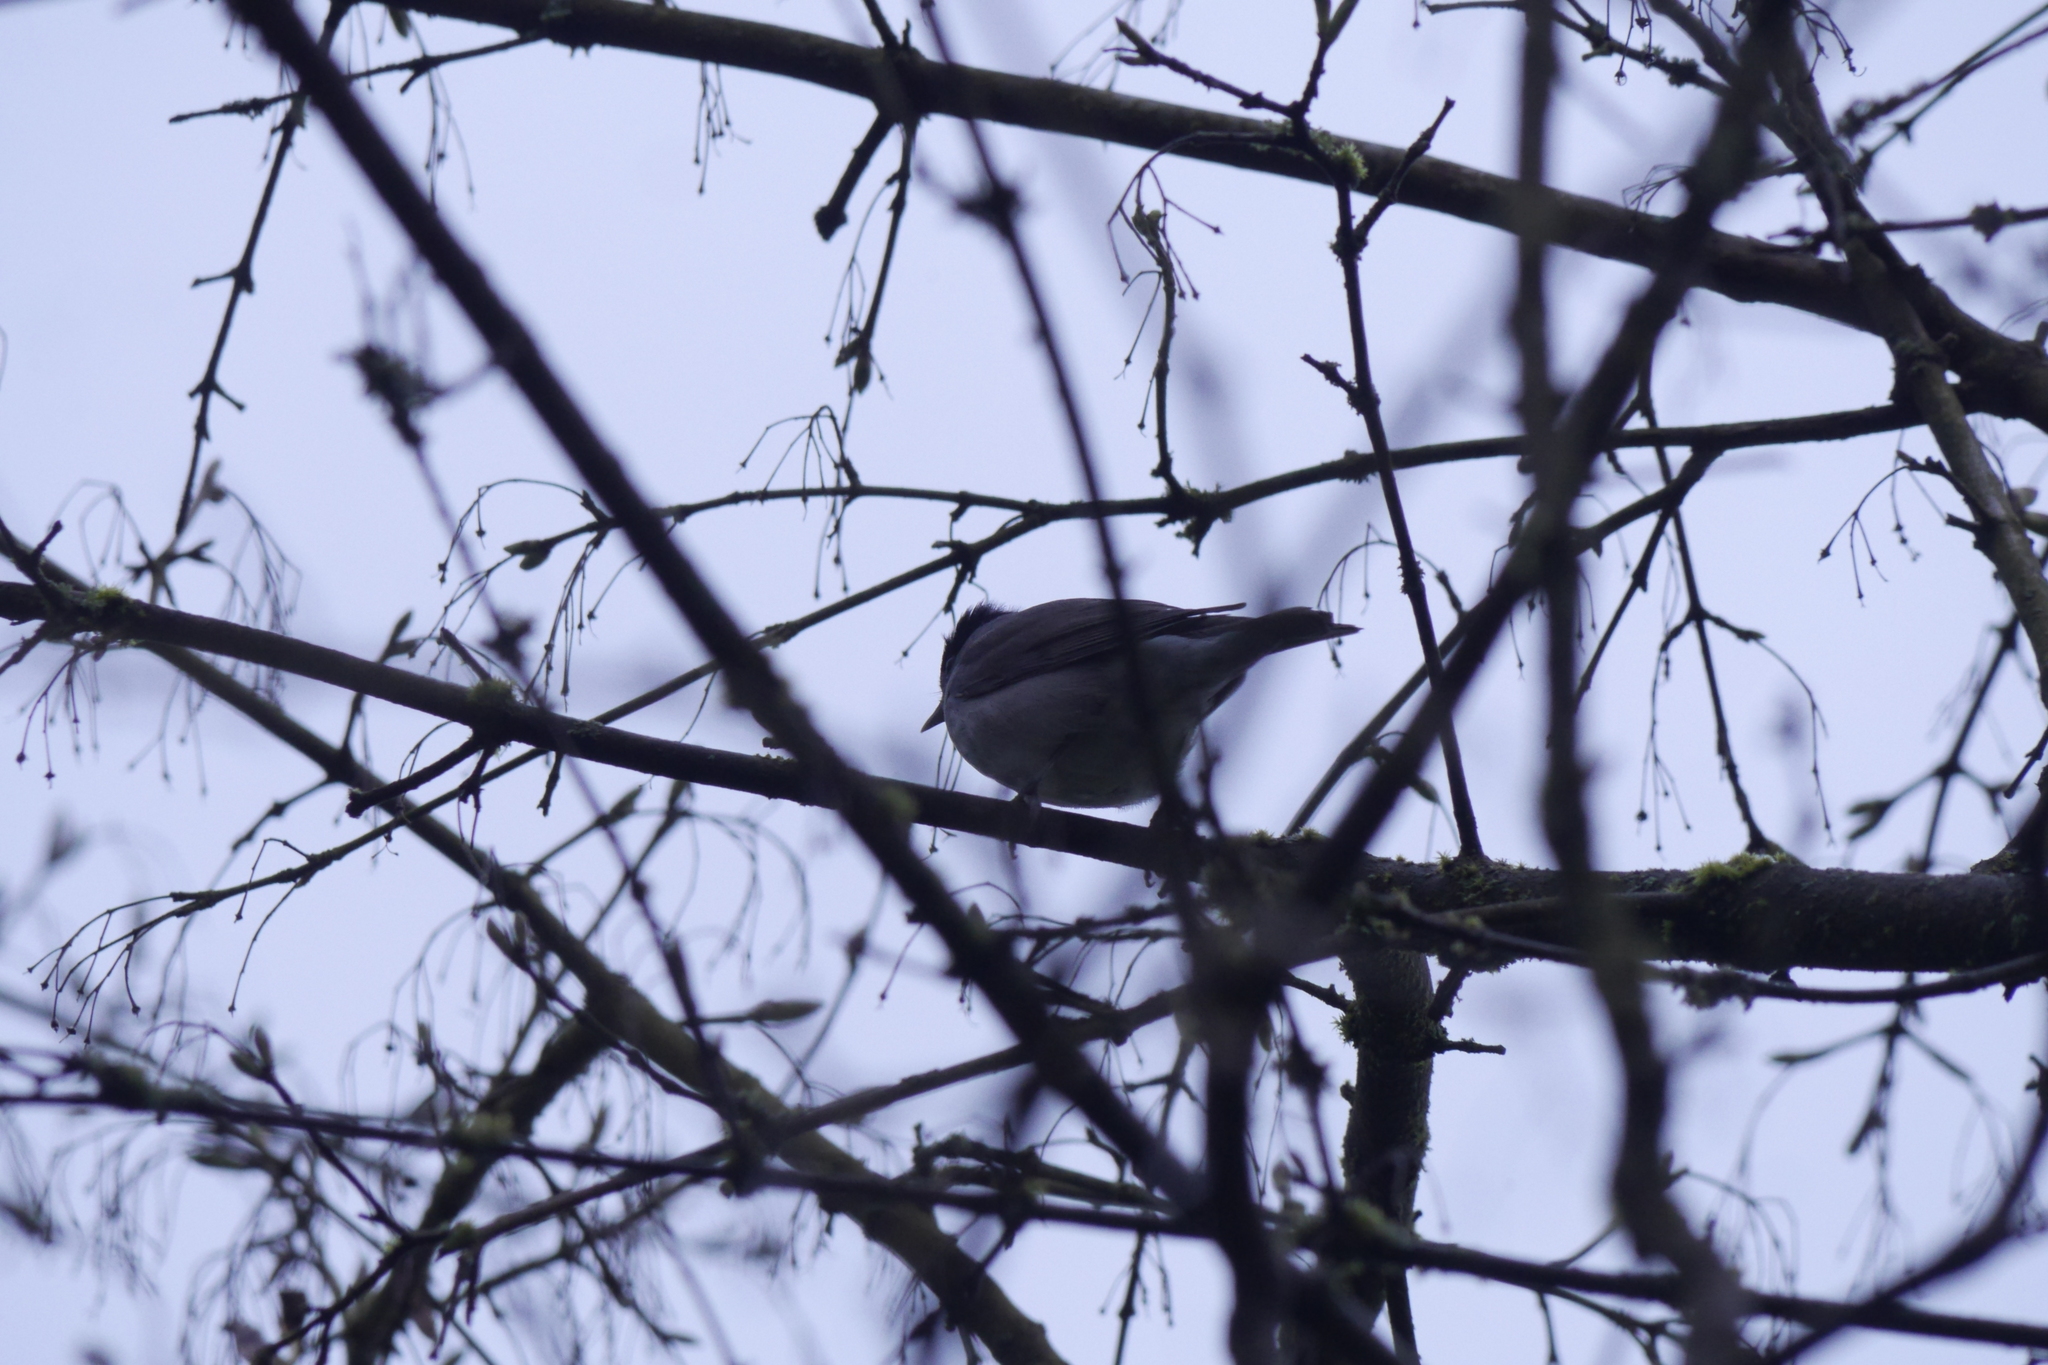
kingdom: Animalia
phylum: Chordata
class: Aves
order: Passeriformes
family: Sylviidae
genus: Sylvia
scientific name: Sylvia atricapilla
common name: Eurasian blackcap
